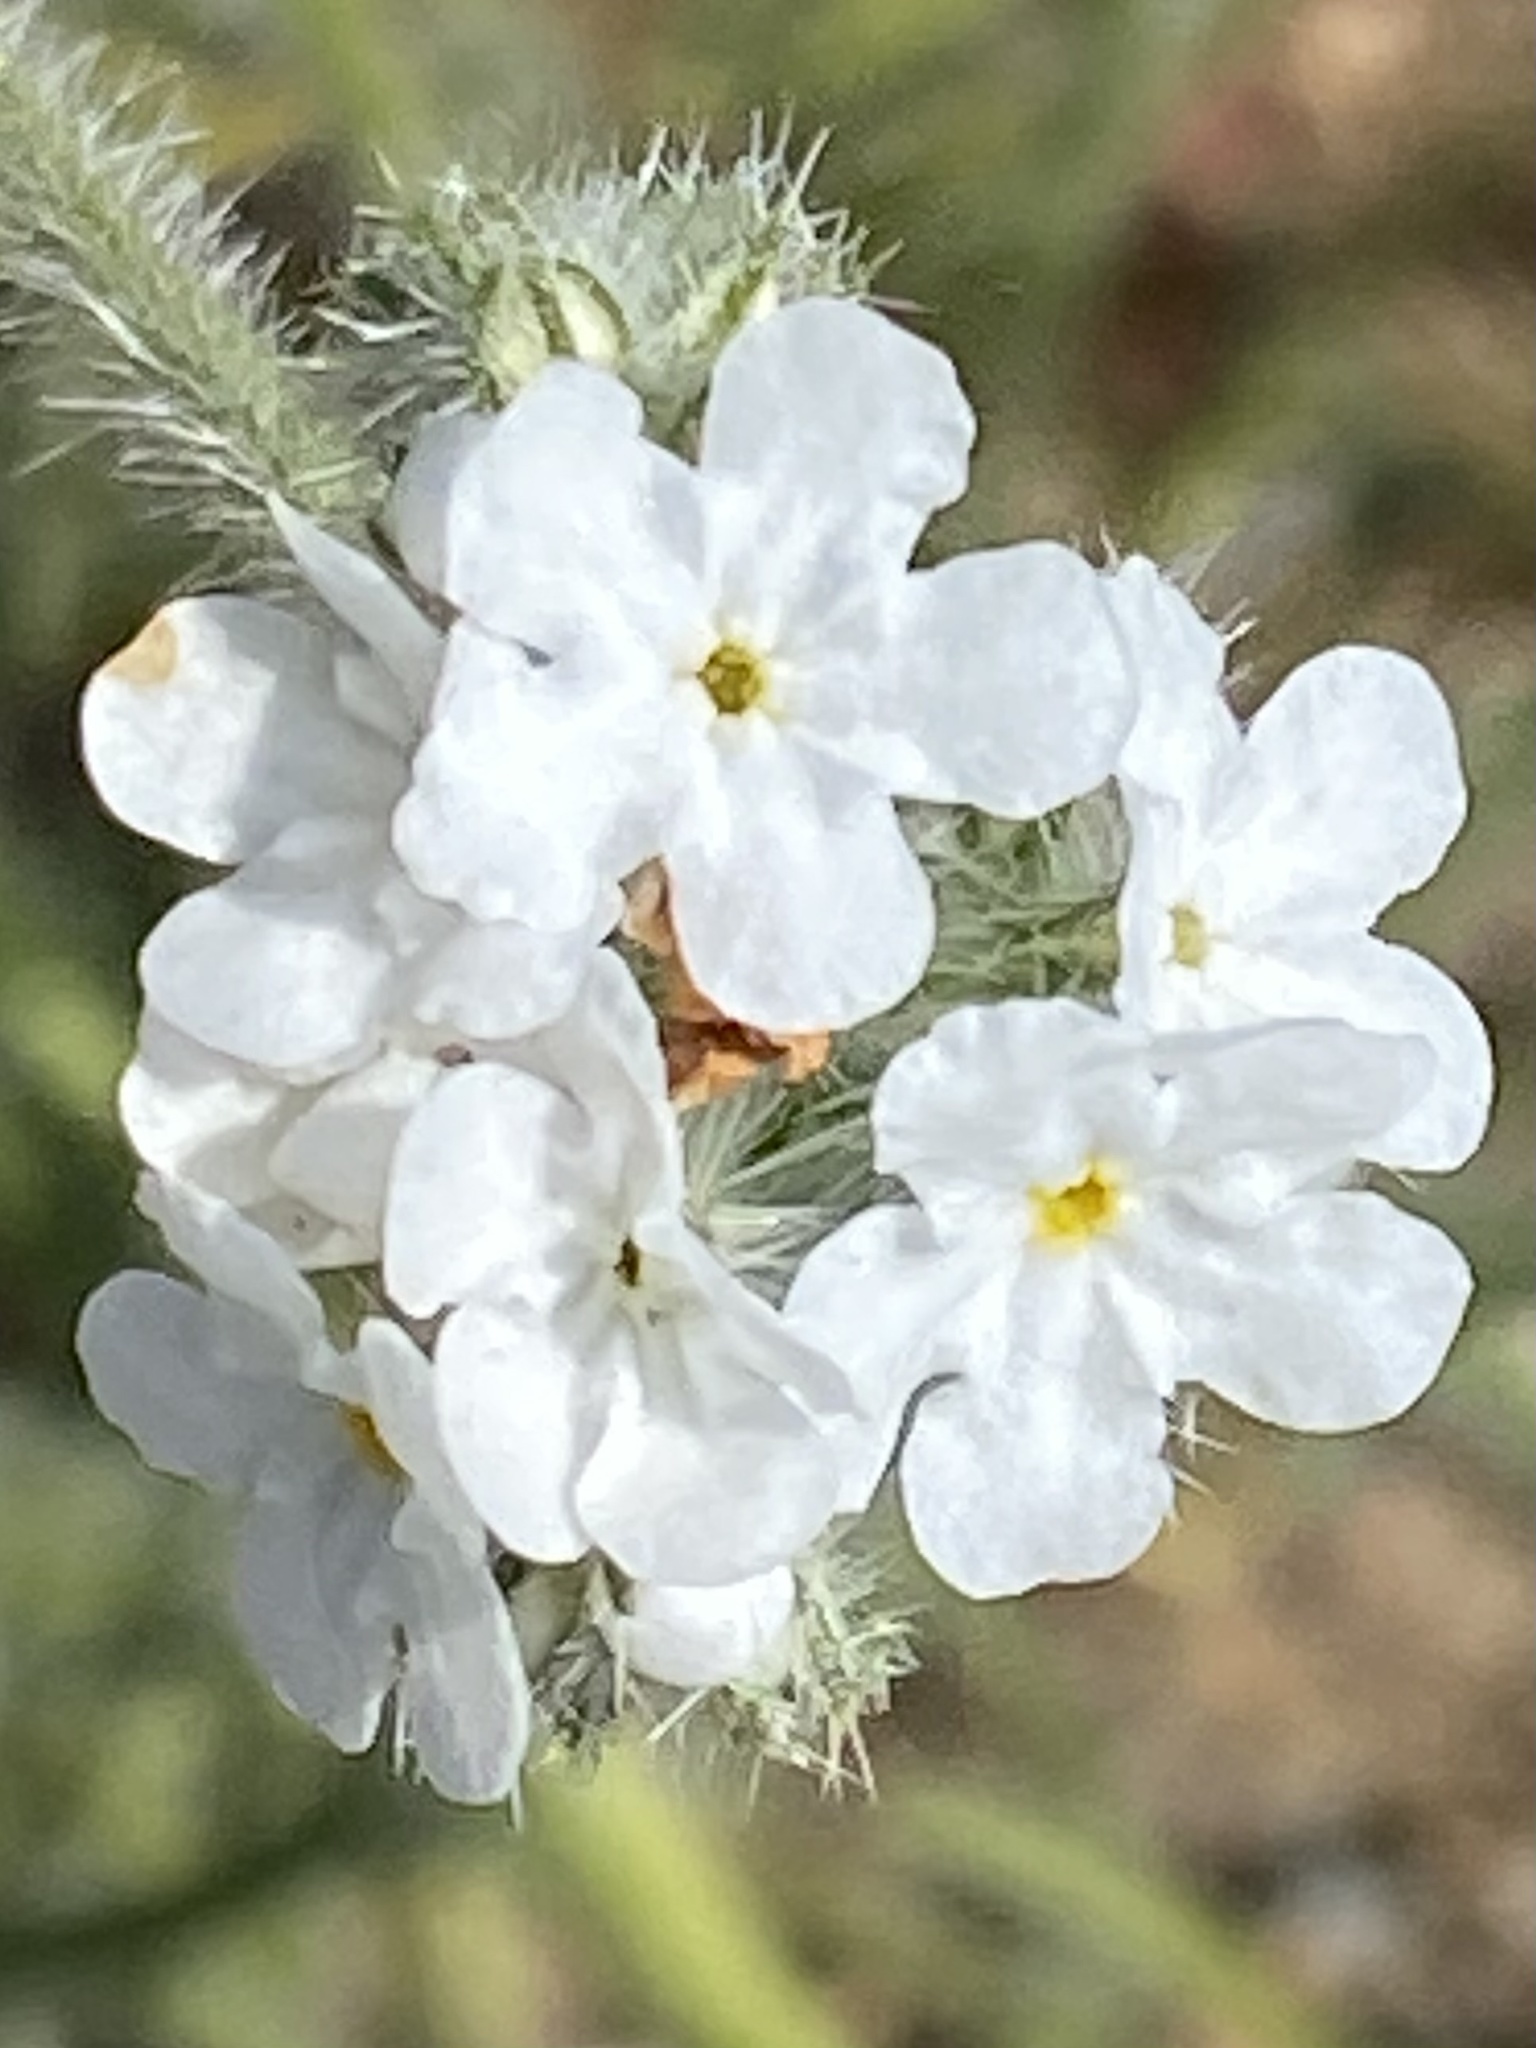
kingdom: Plantae
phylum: Tracheophyta
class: Magnoliopsida
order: Boraginales
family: Boraginaceae
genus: Cryptantha
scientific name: Cryptantha intermedia
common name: Clearwater cryptantha
